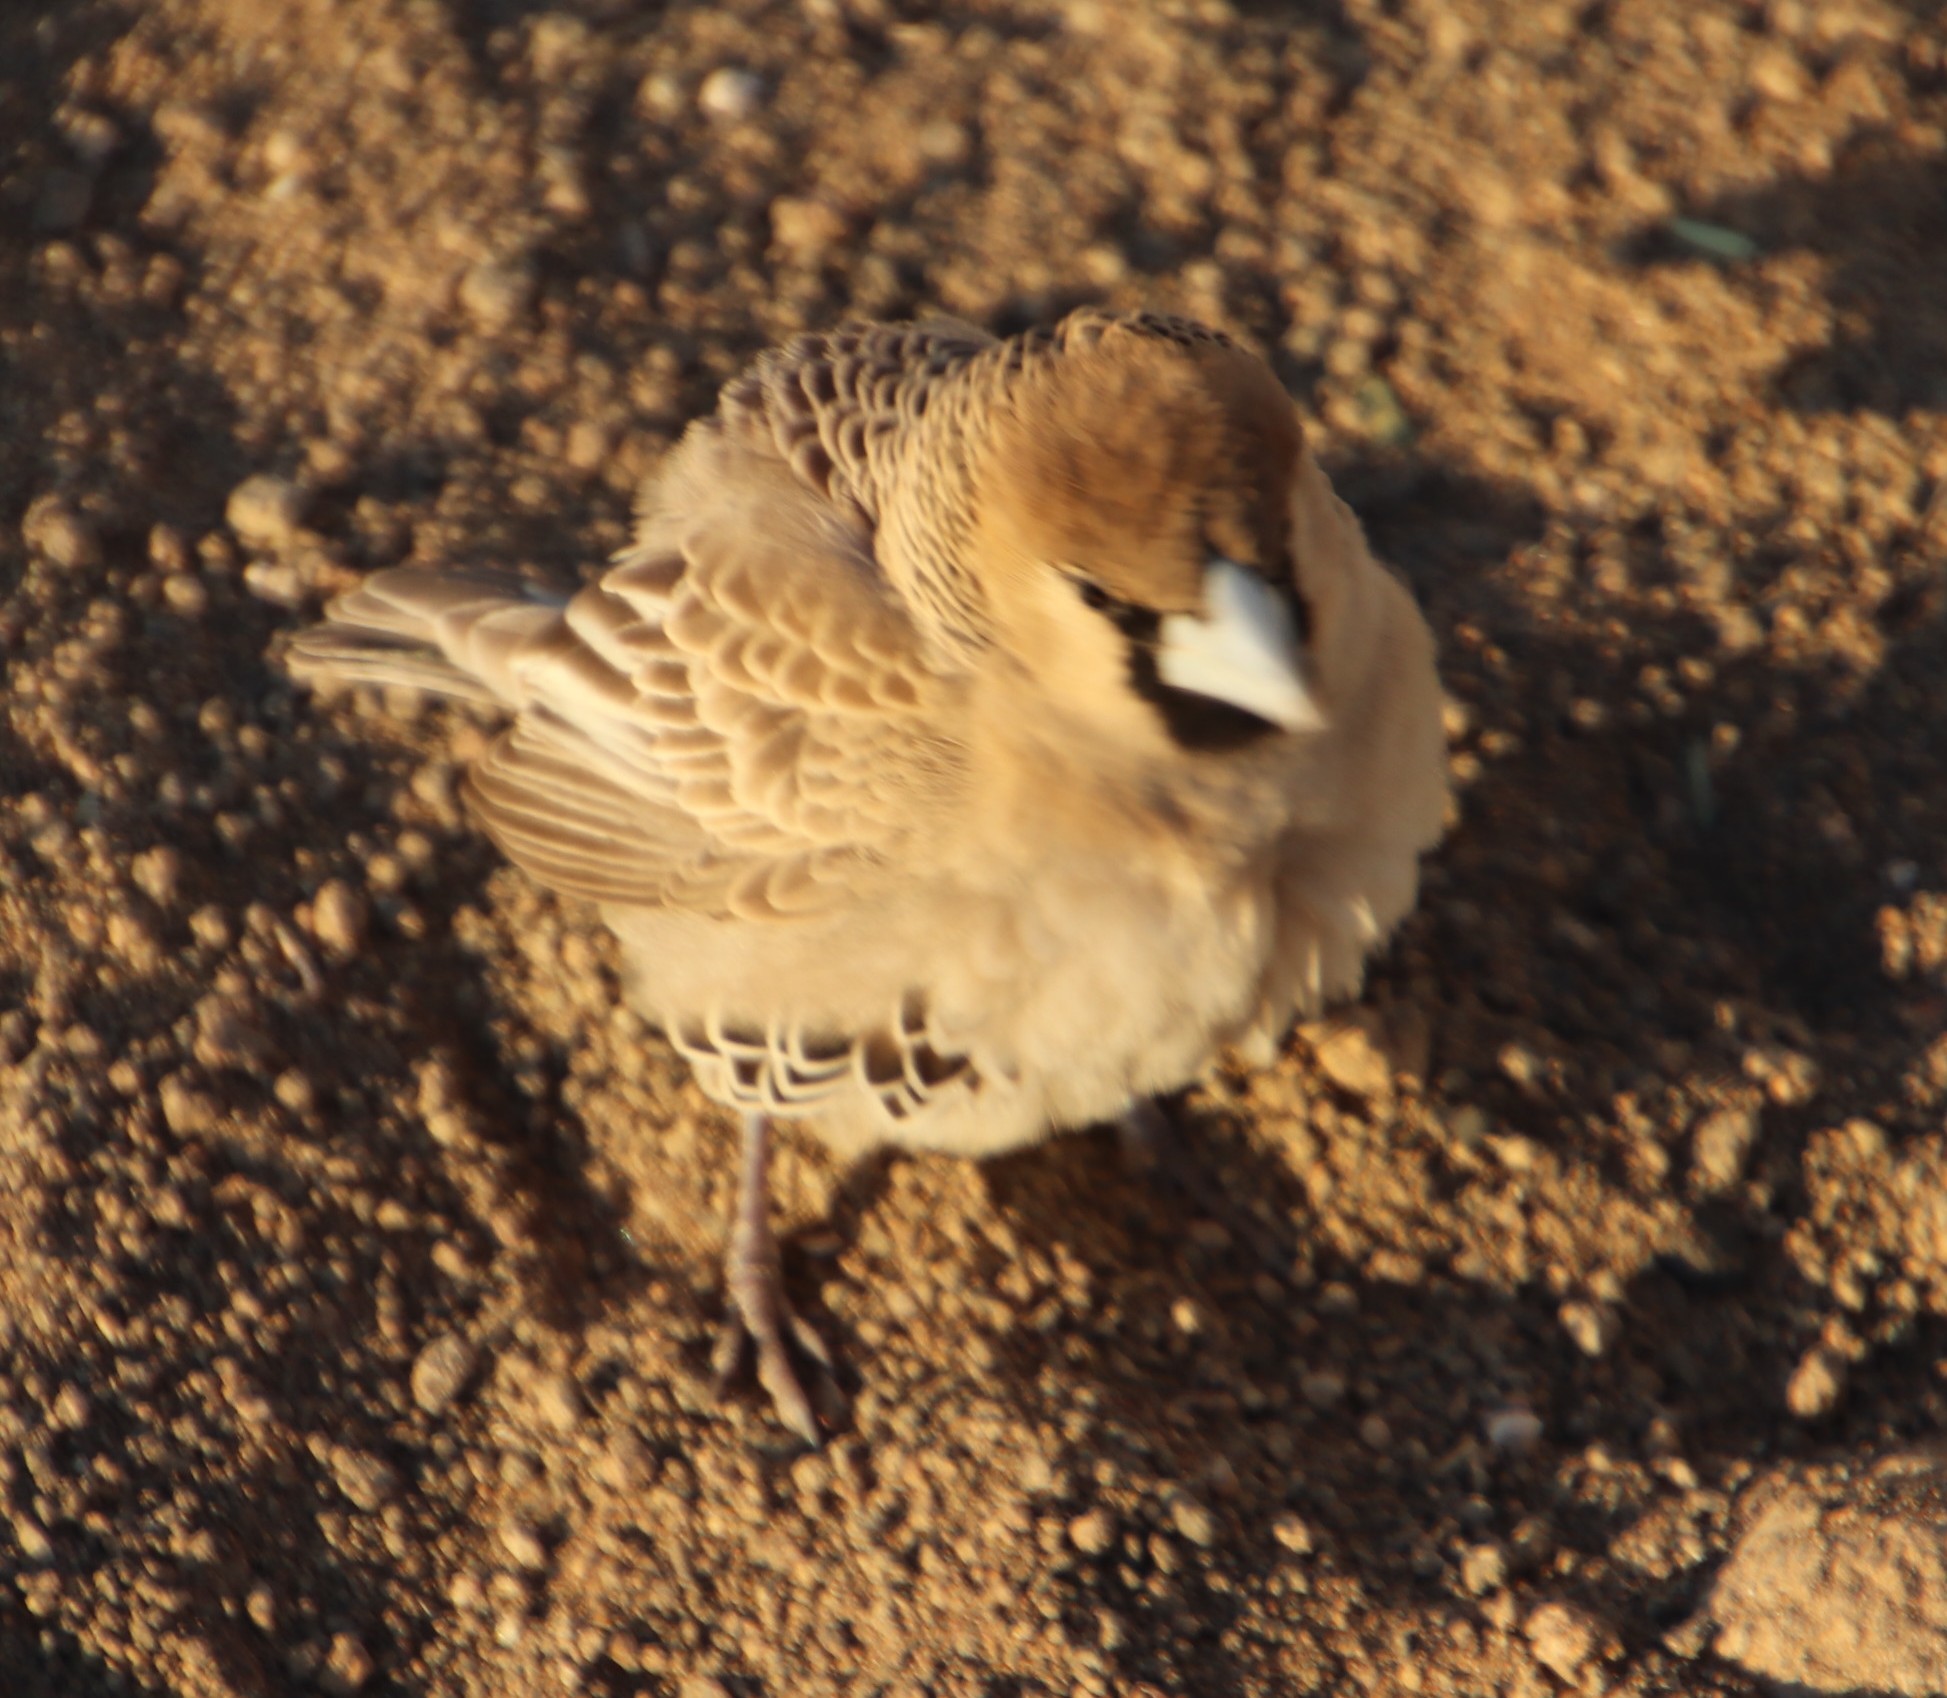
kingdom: Animalia
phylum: Chordata
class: Aves
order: Passeriformes
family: Passeridae
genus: Philetairus
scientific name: Philetairus socius
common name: Sociable weaver
